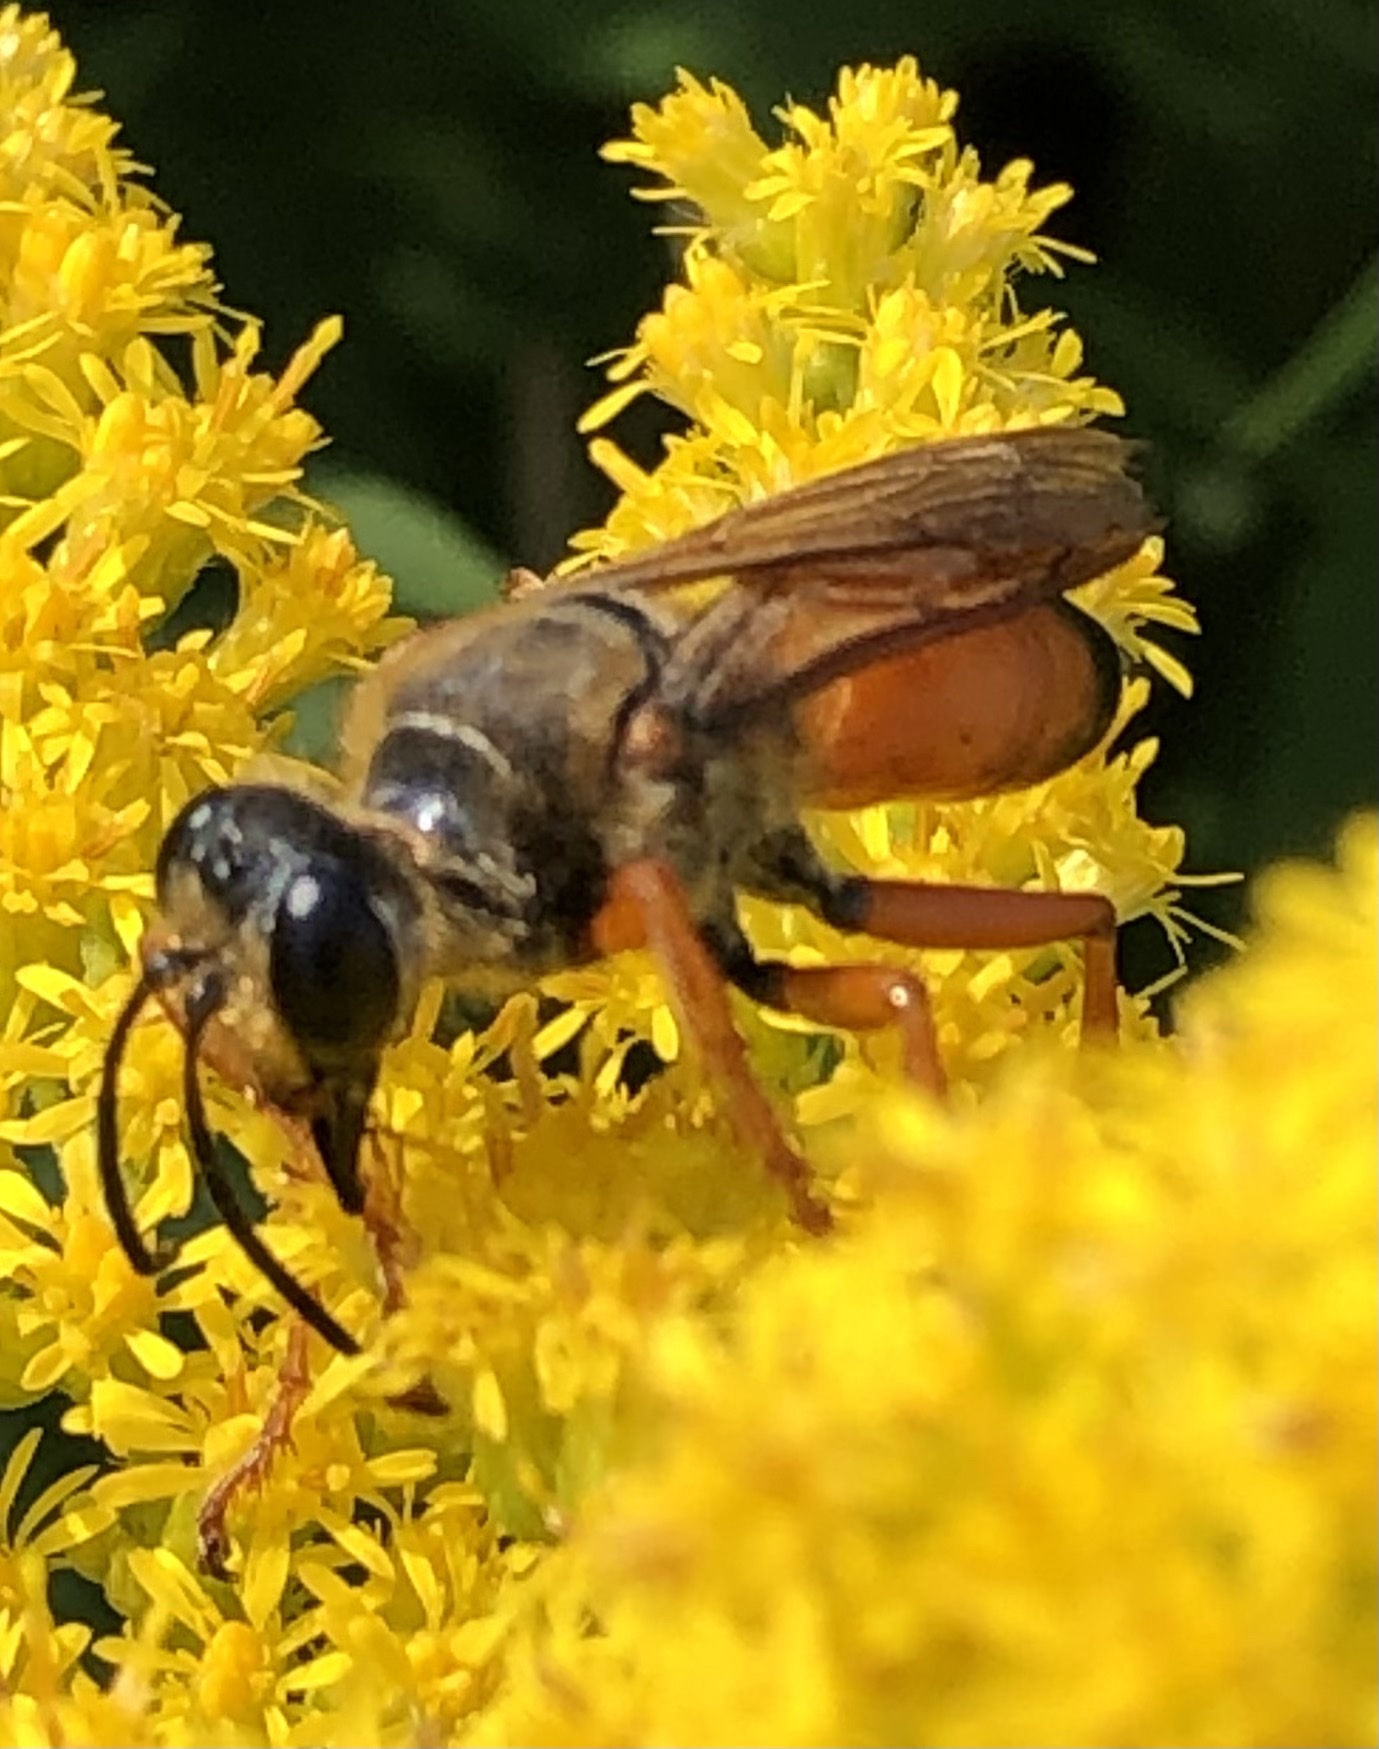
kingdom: Animalia
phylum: Arthropoda
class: Insecta
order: Hymenoptera
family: Sphecidae
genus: Sphex
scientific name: Sphex ichneumoneus
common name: Great golden digger wasp
